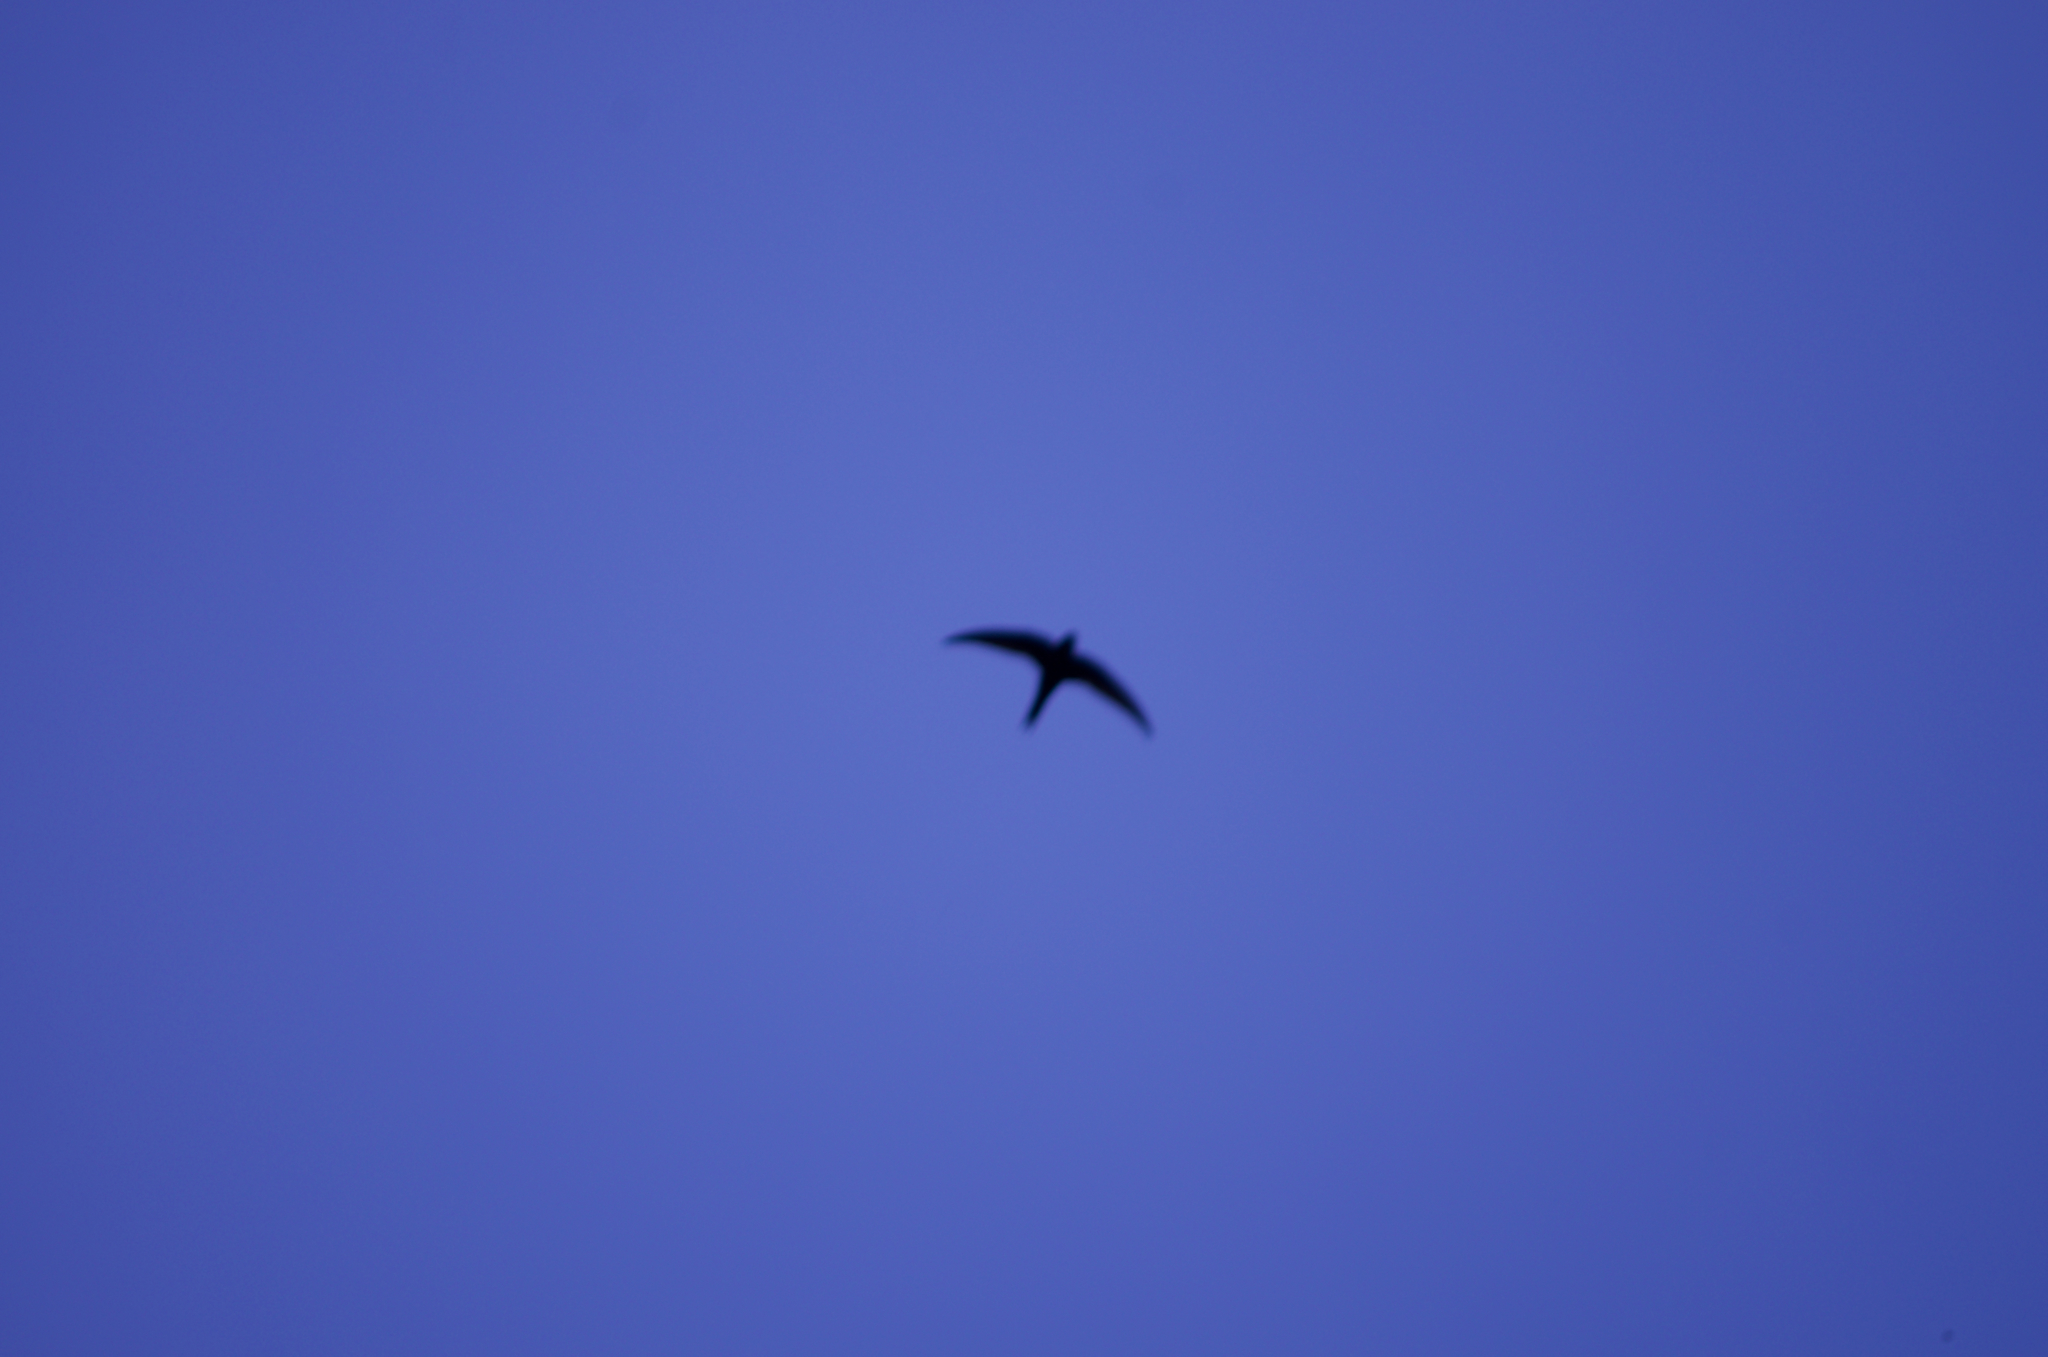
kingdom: Animalia
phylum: Chordata
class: Aves
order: Apodiformes
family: Apodidae
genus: Apus
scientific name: Apus apus
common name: Common swift
